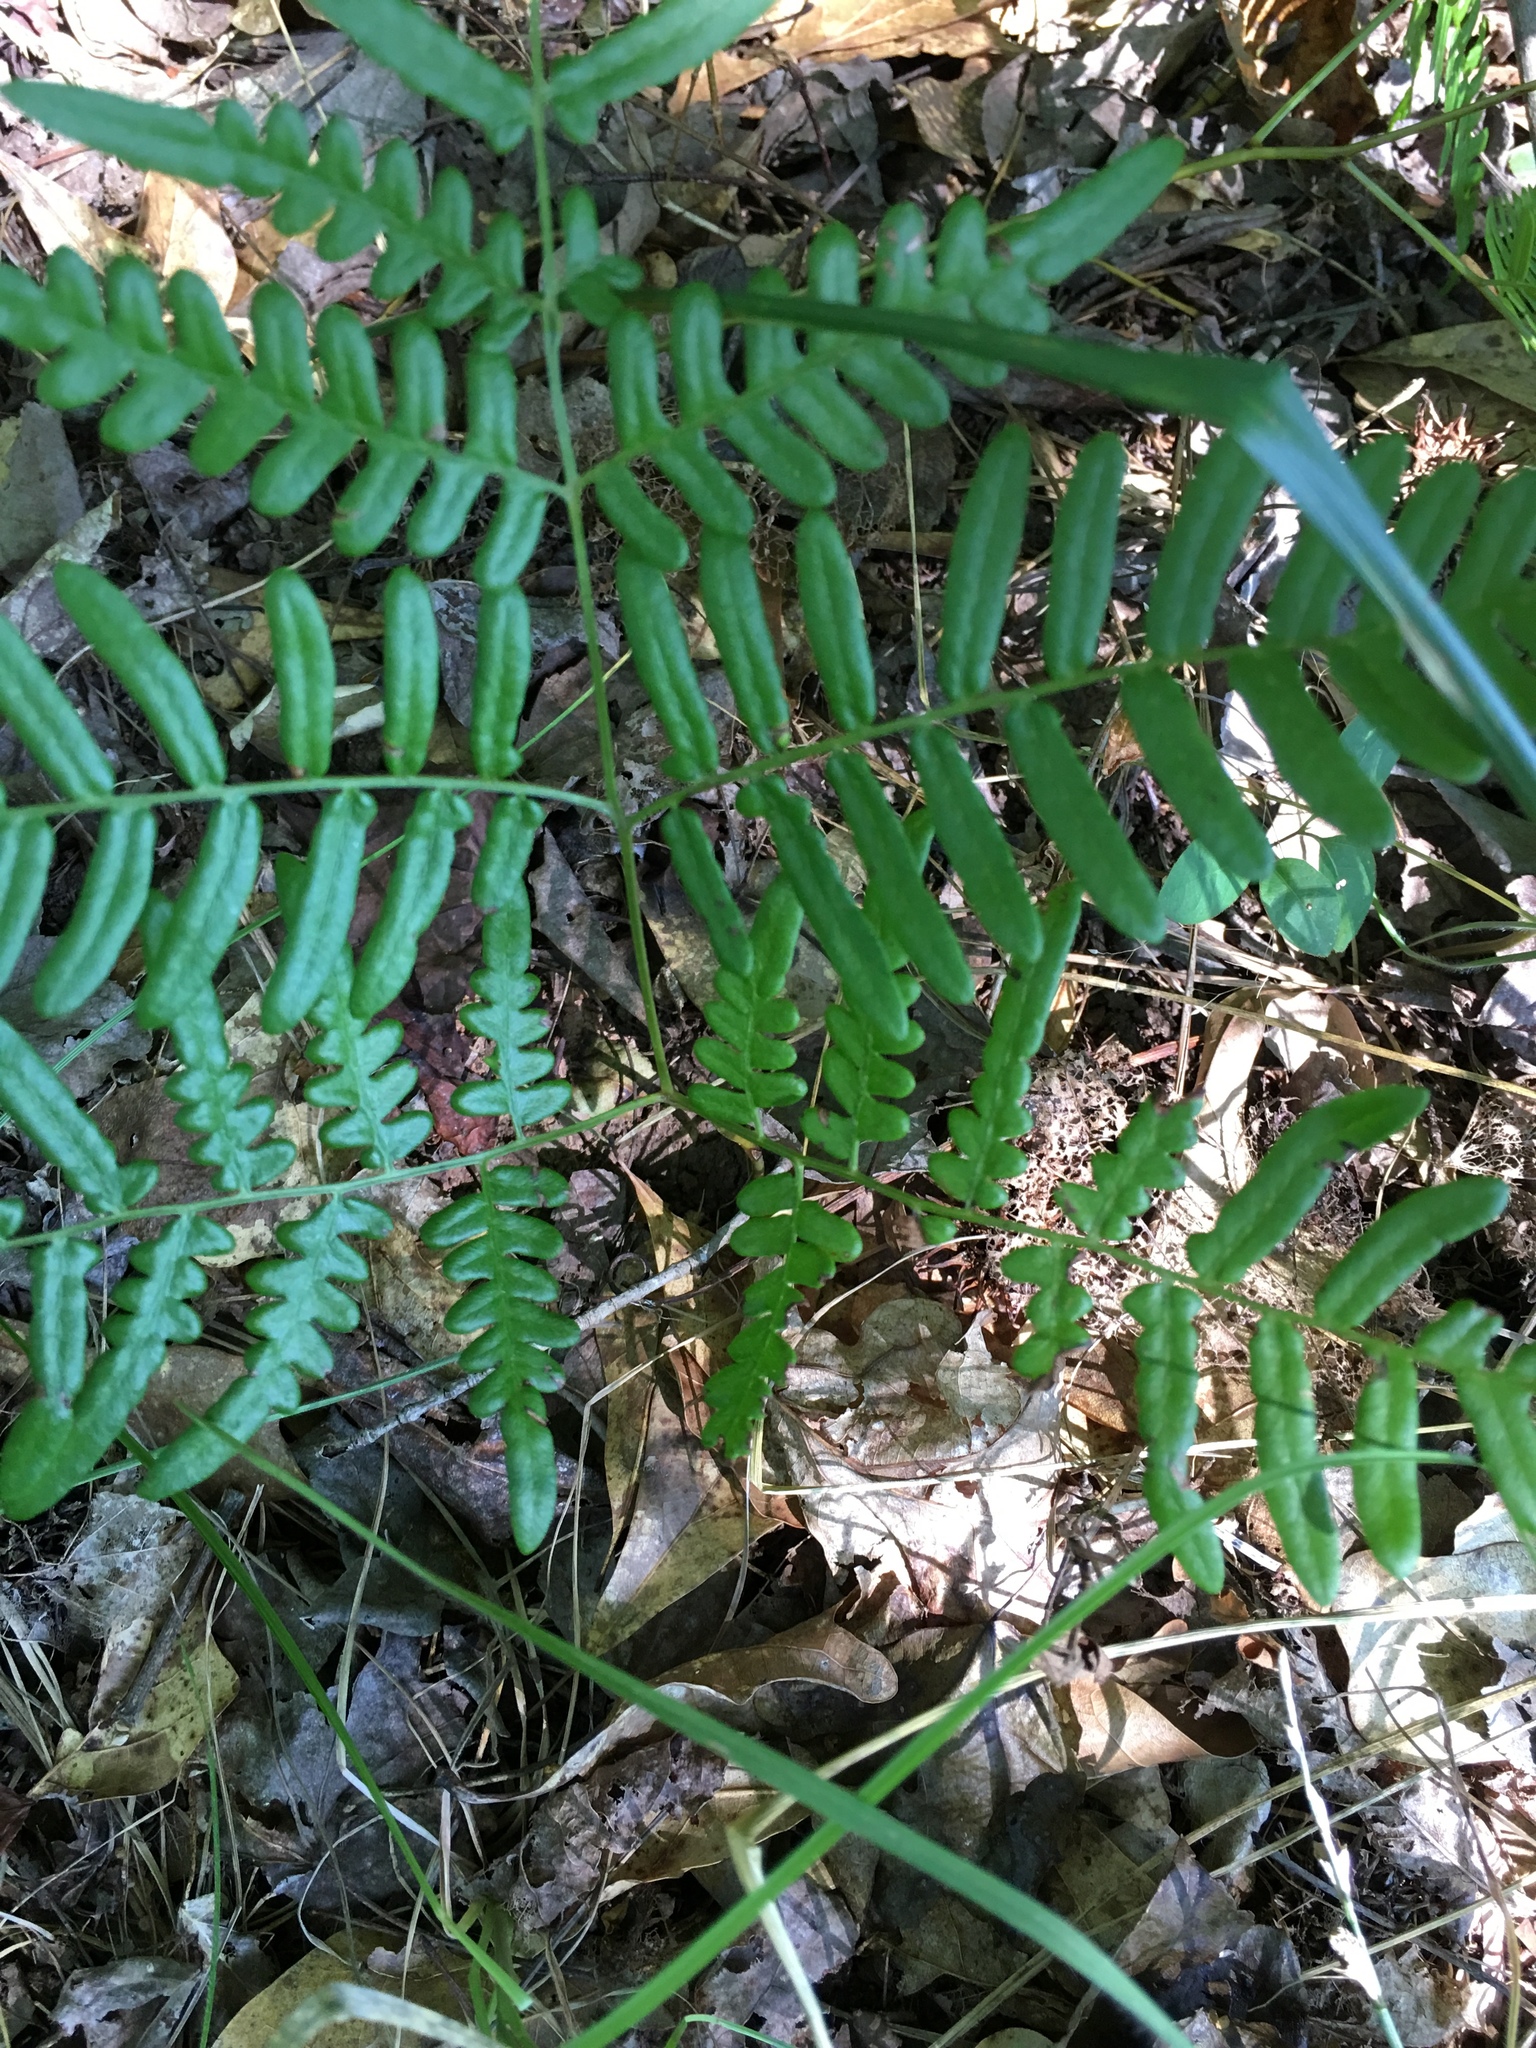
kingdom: Plantae
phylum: Tracheophyta
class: Polypodiopsida
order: Polypodiales
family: Dennstaedtiaceae
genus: Pteridium
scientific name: Pteridium
